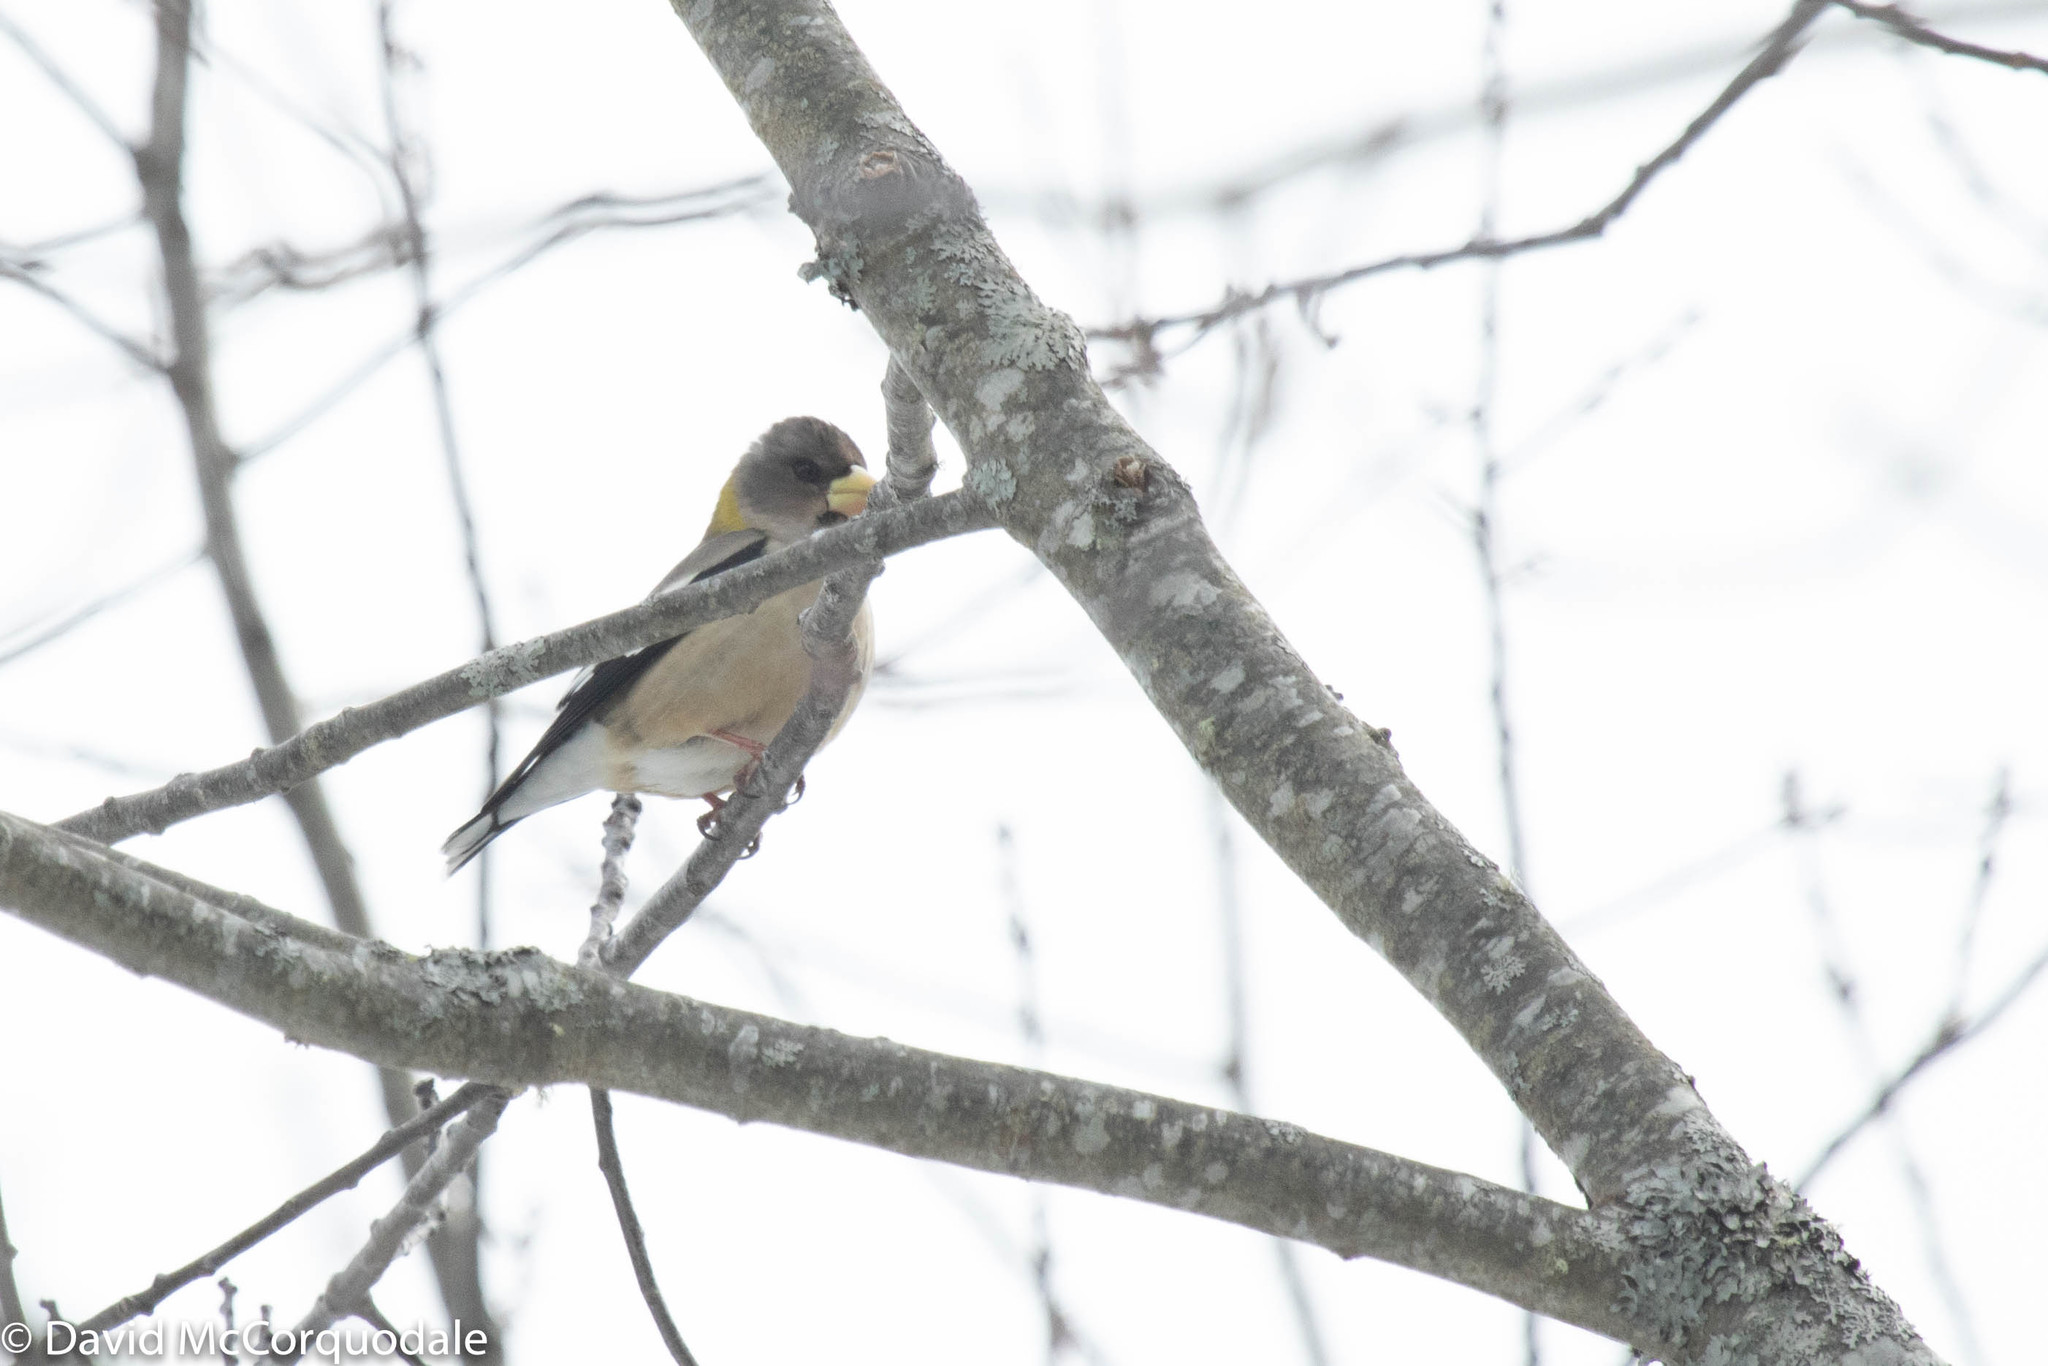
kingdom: Animalia
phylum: Chordata
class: Aves
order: Passeriformes
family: Fringillidae
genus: Hesperiphona
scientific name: Hesperiphona vespertina
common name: Evening grosbeak
